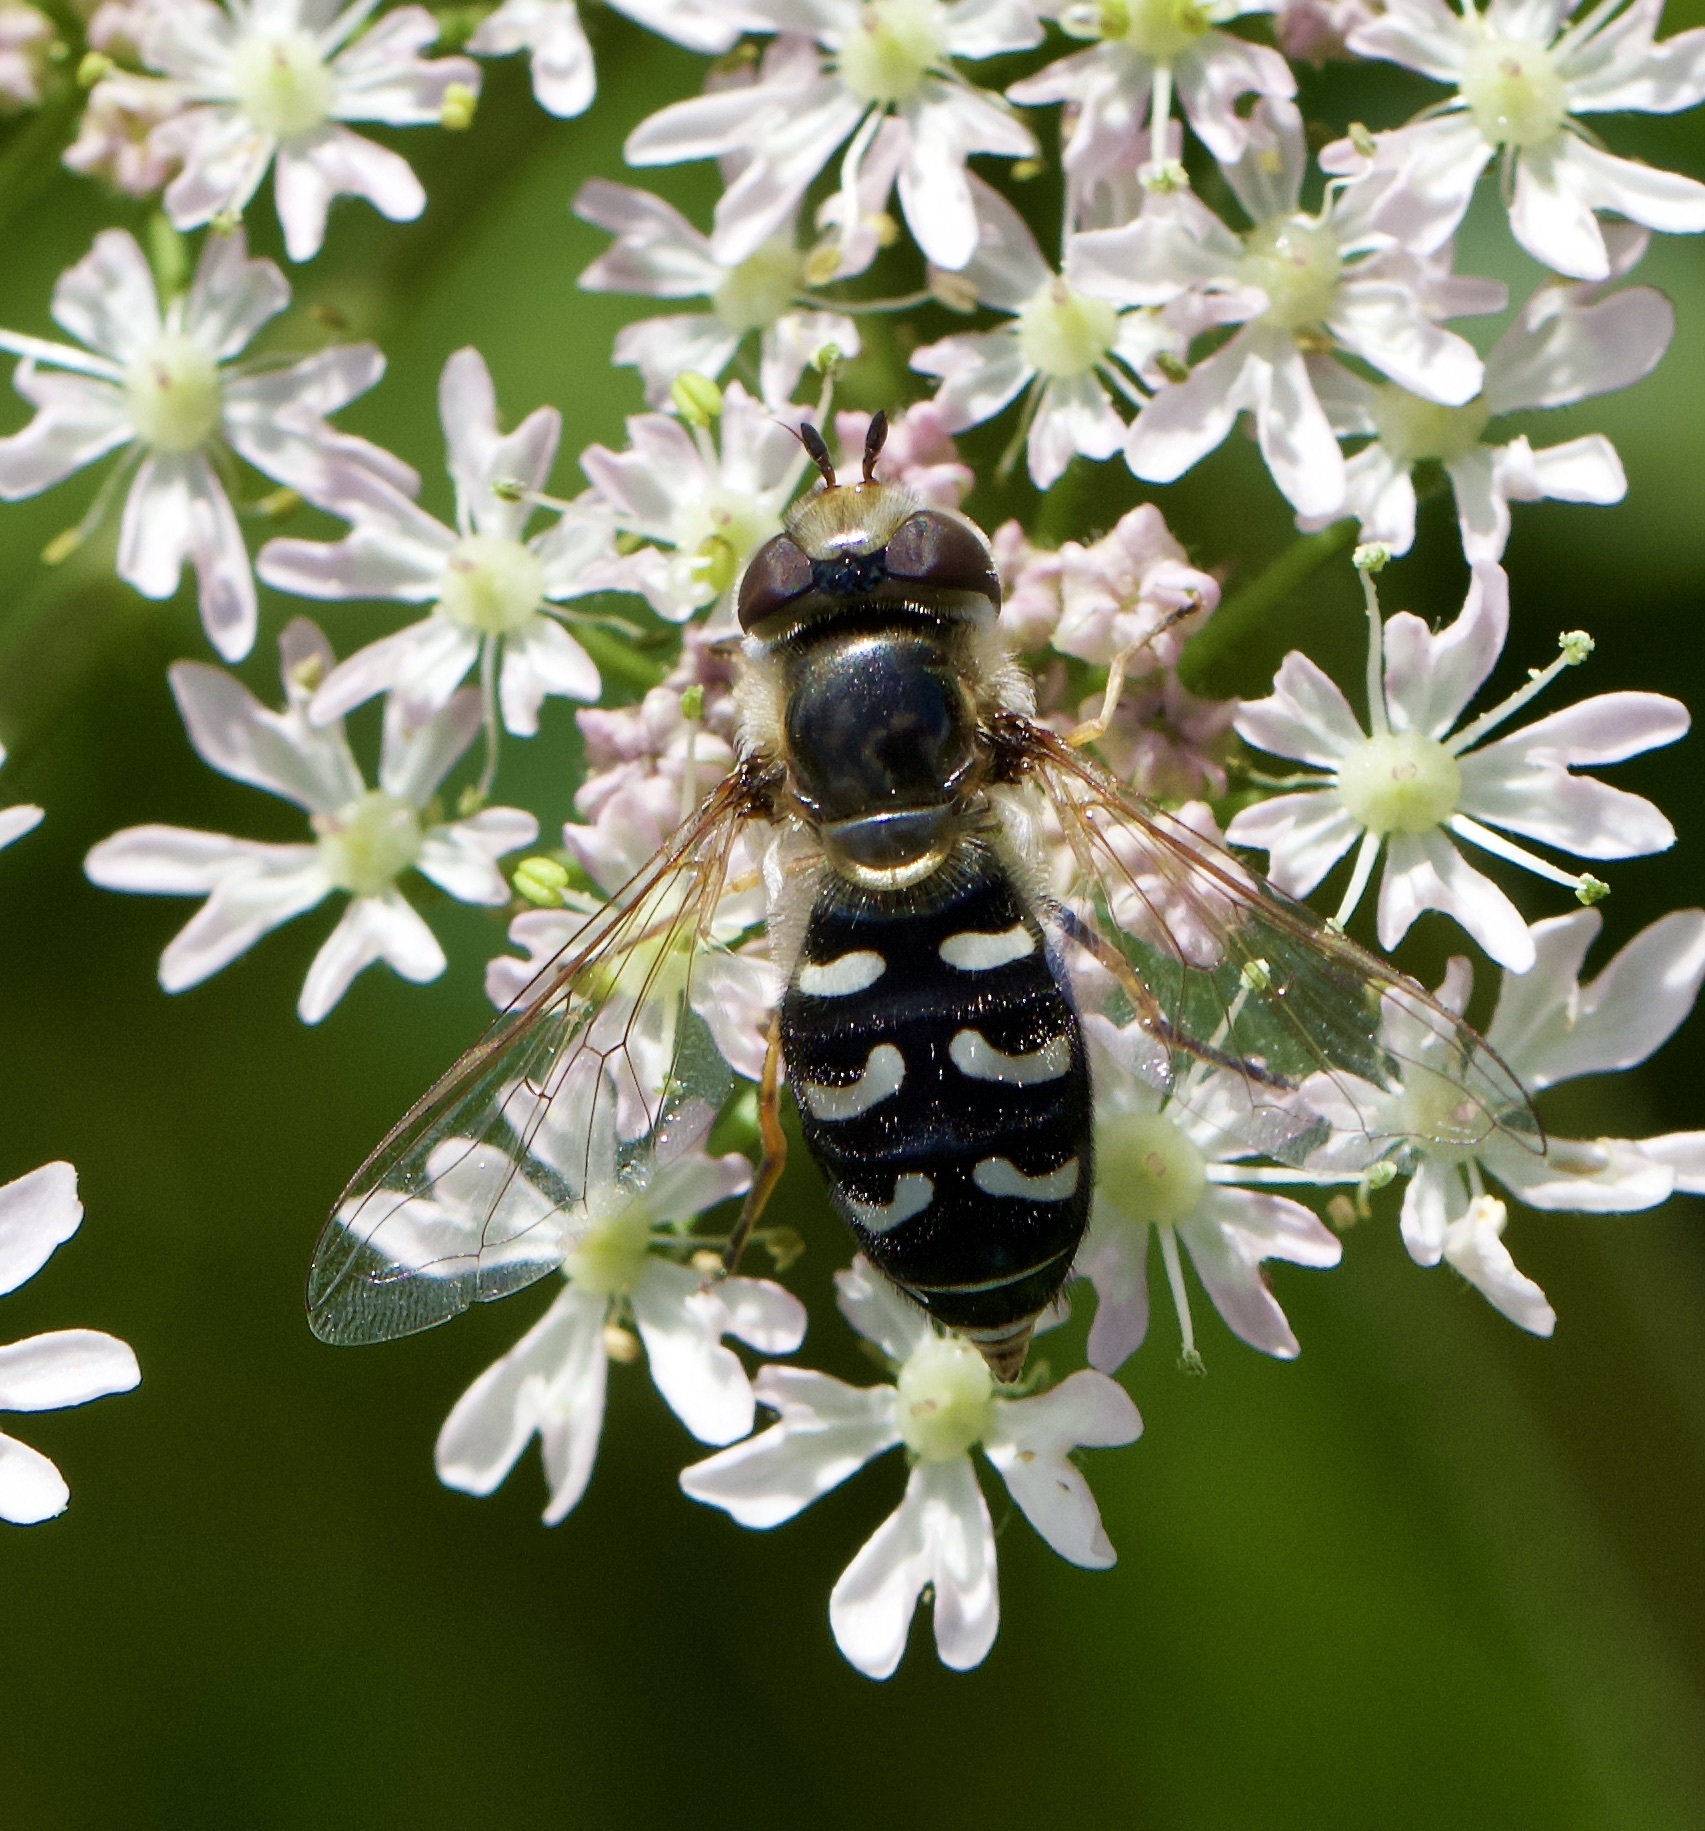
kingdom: Animalia
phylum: Arthropoda
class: Insecta
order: Diptera
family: Syrphidae
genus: Scaeva
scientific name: Scaeva pyrastri
